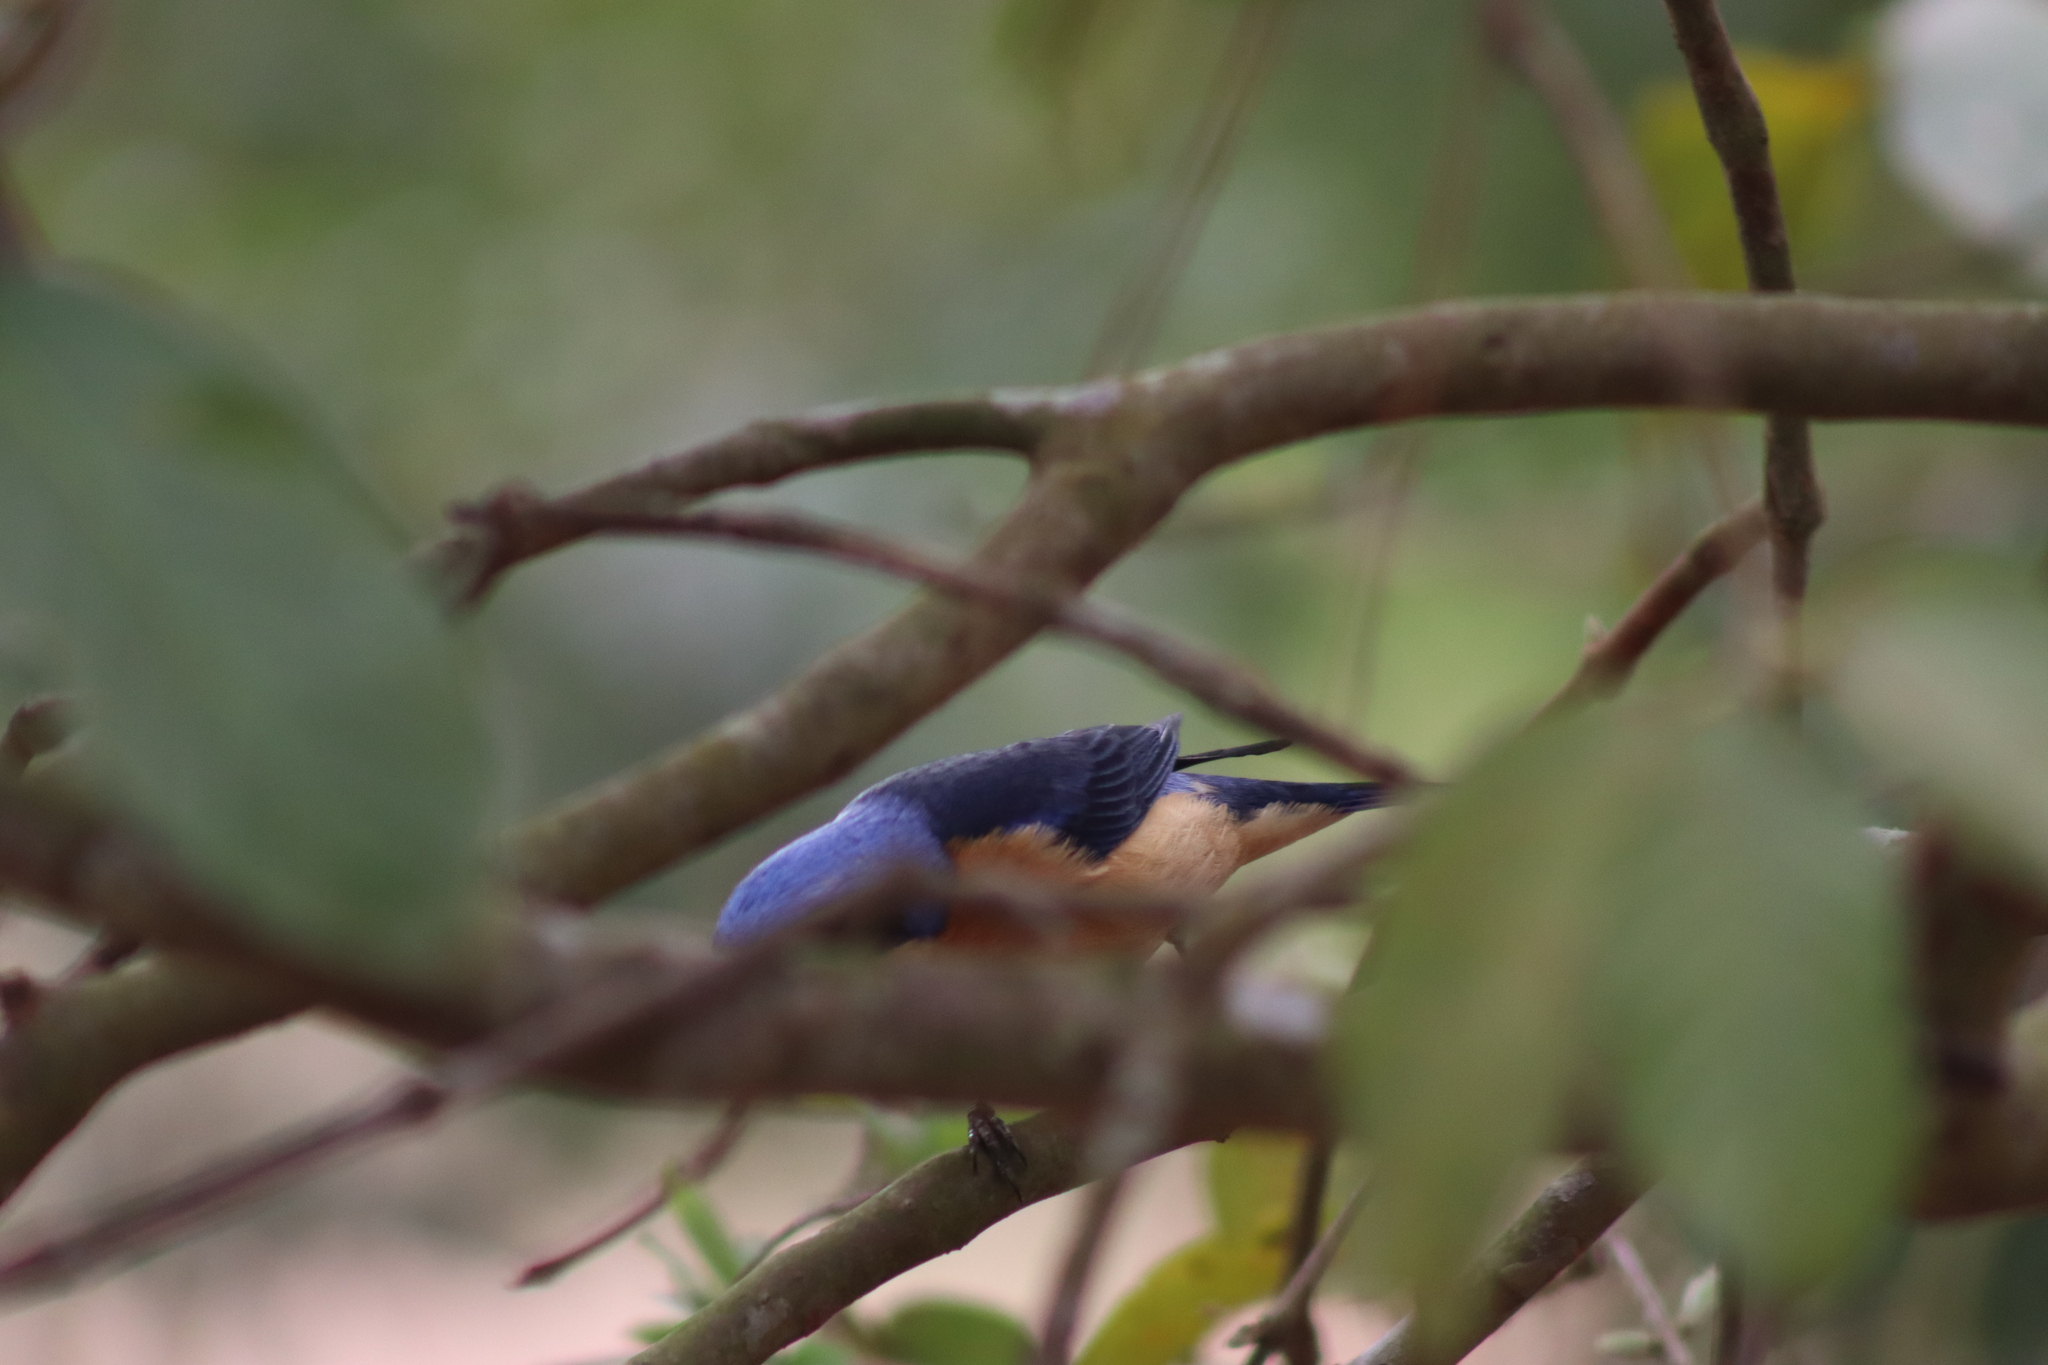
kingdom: Animalia
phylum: Chordata
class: Aves
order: Passeriformes
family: Thraupidae
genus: Pipraeidea
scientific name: Pipraeidea melanonota
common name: Fawn-breasted tanager
